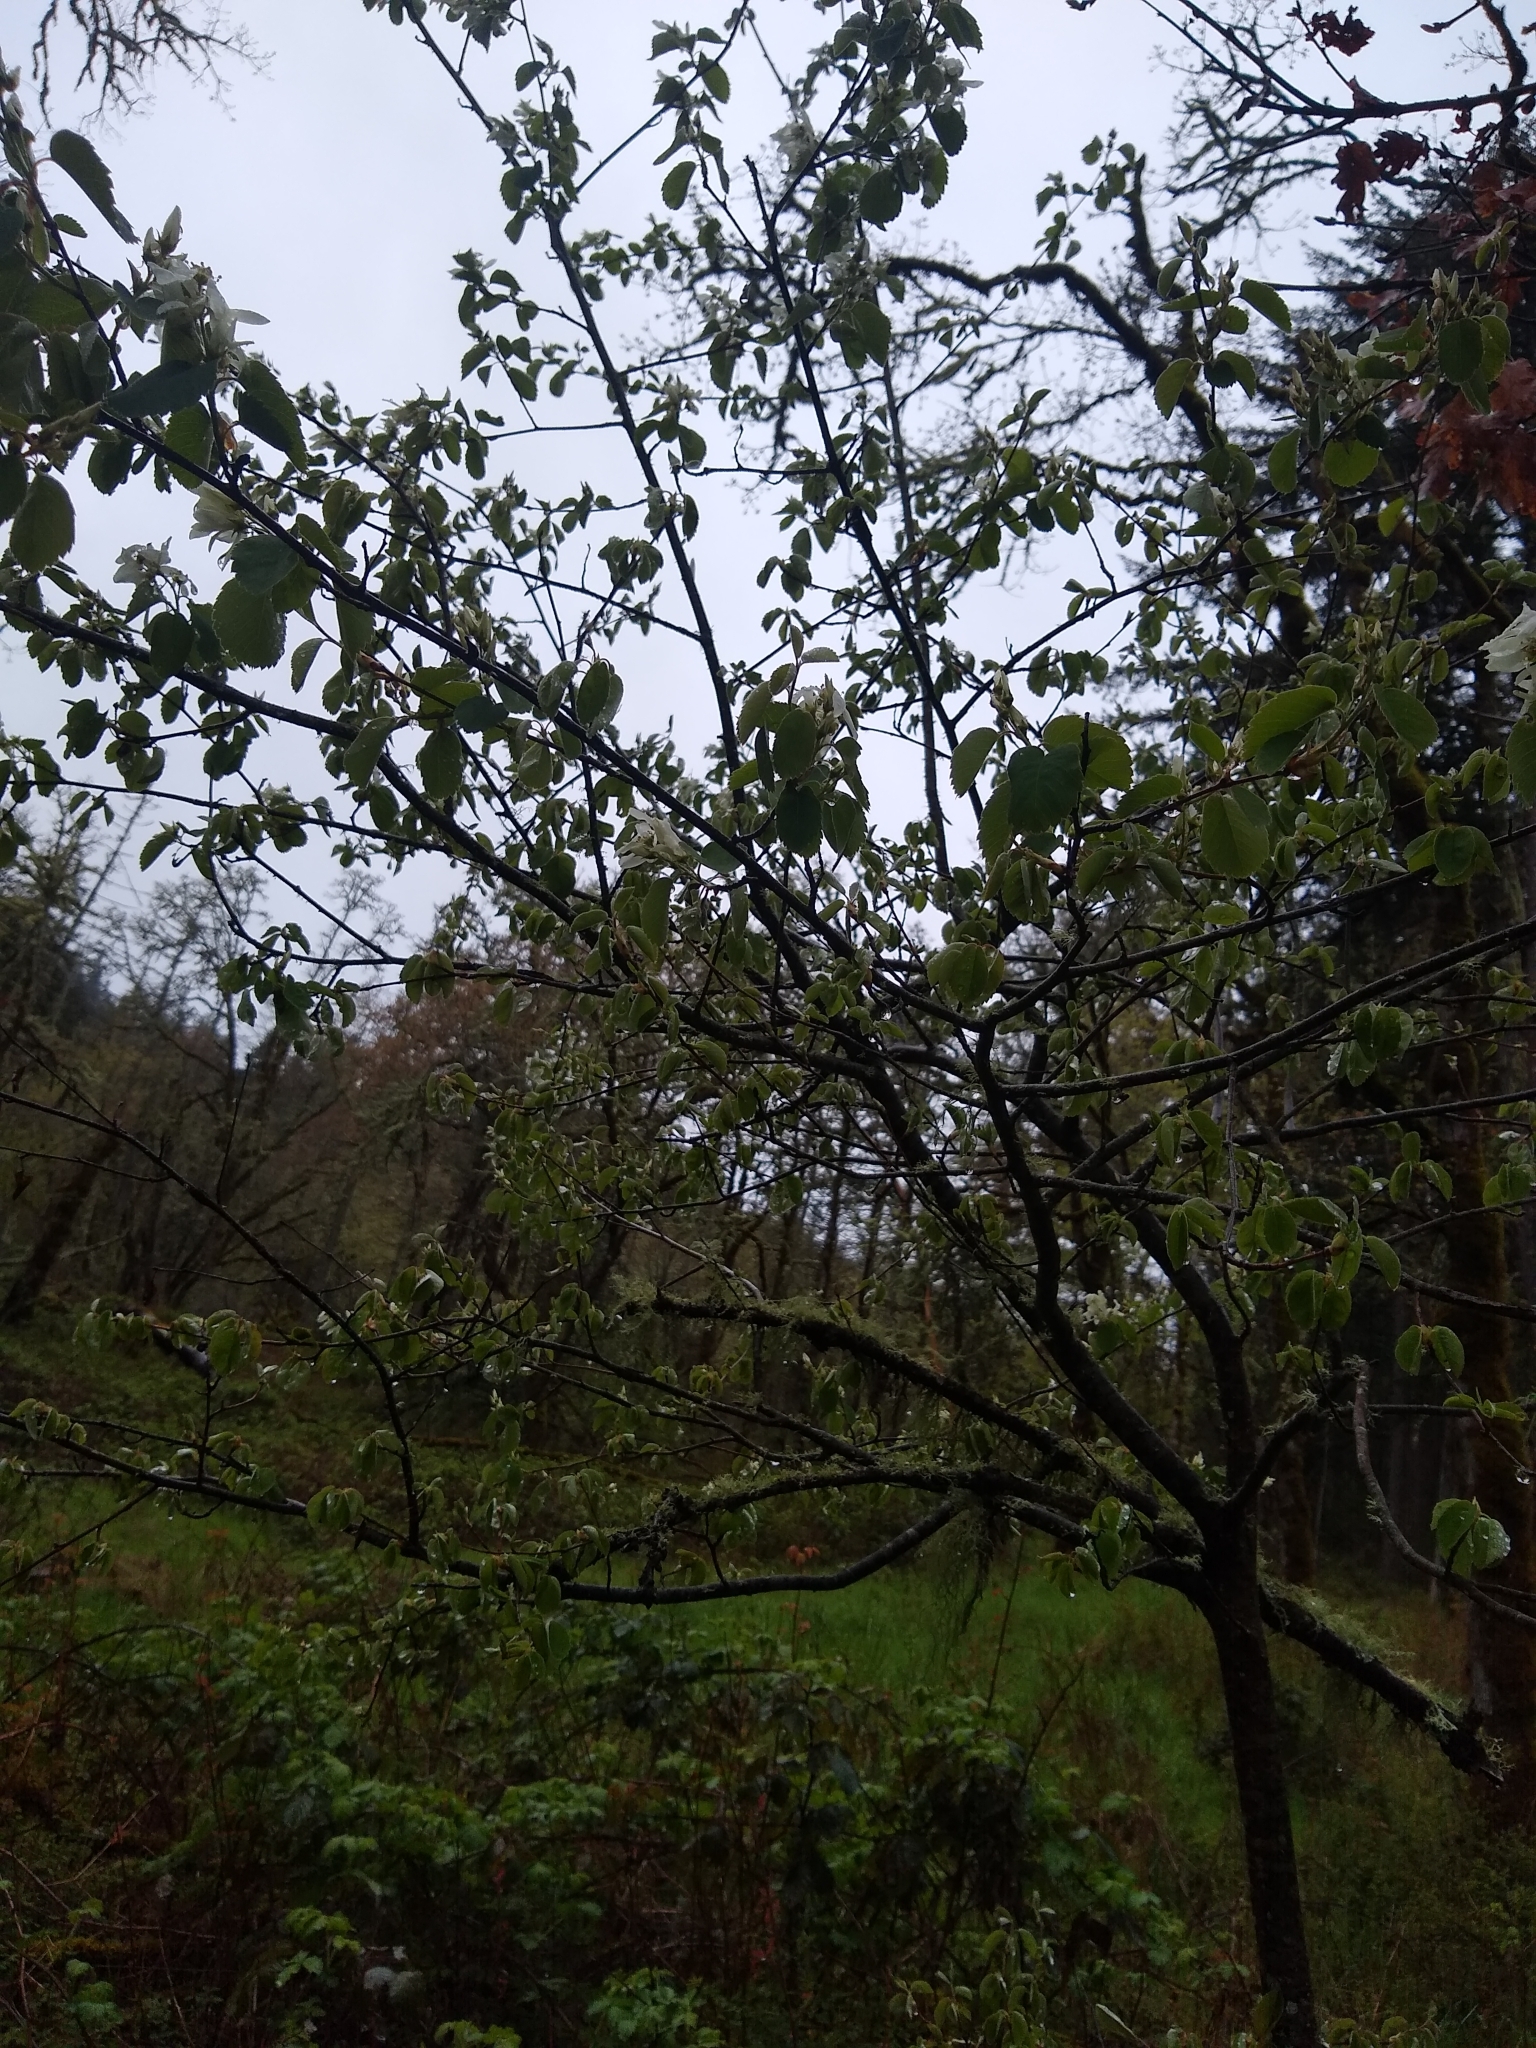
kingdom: Plantae
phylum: Tracheophyta
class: Magnoliopsida
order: Rosales
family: Rosaceae
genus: Amelanchier
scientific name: Amelanchier alnifolia
